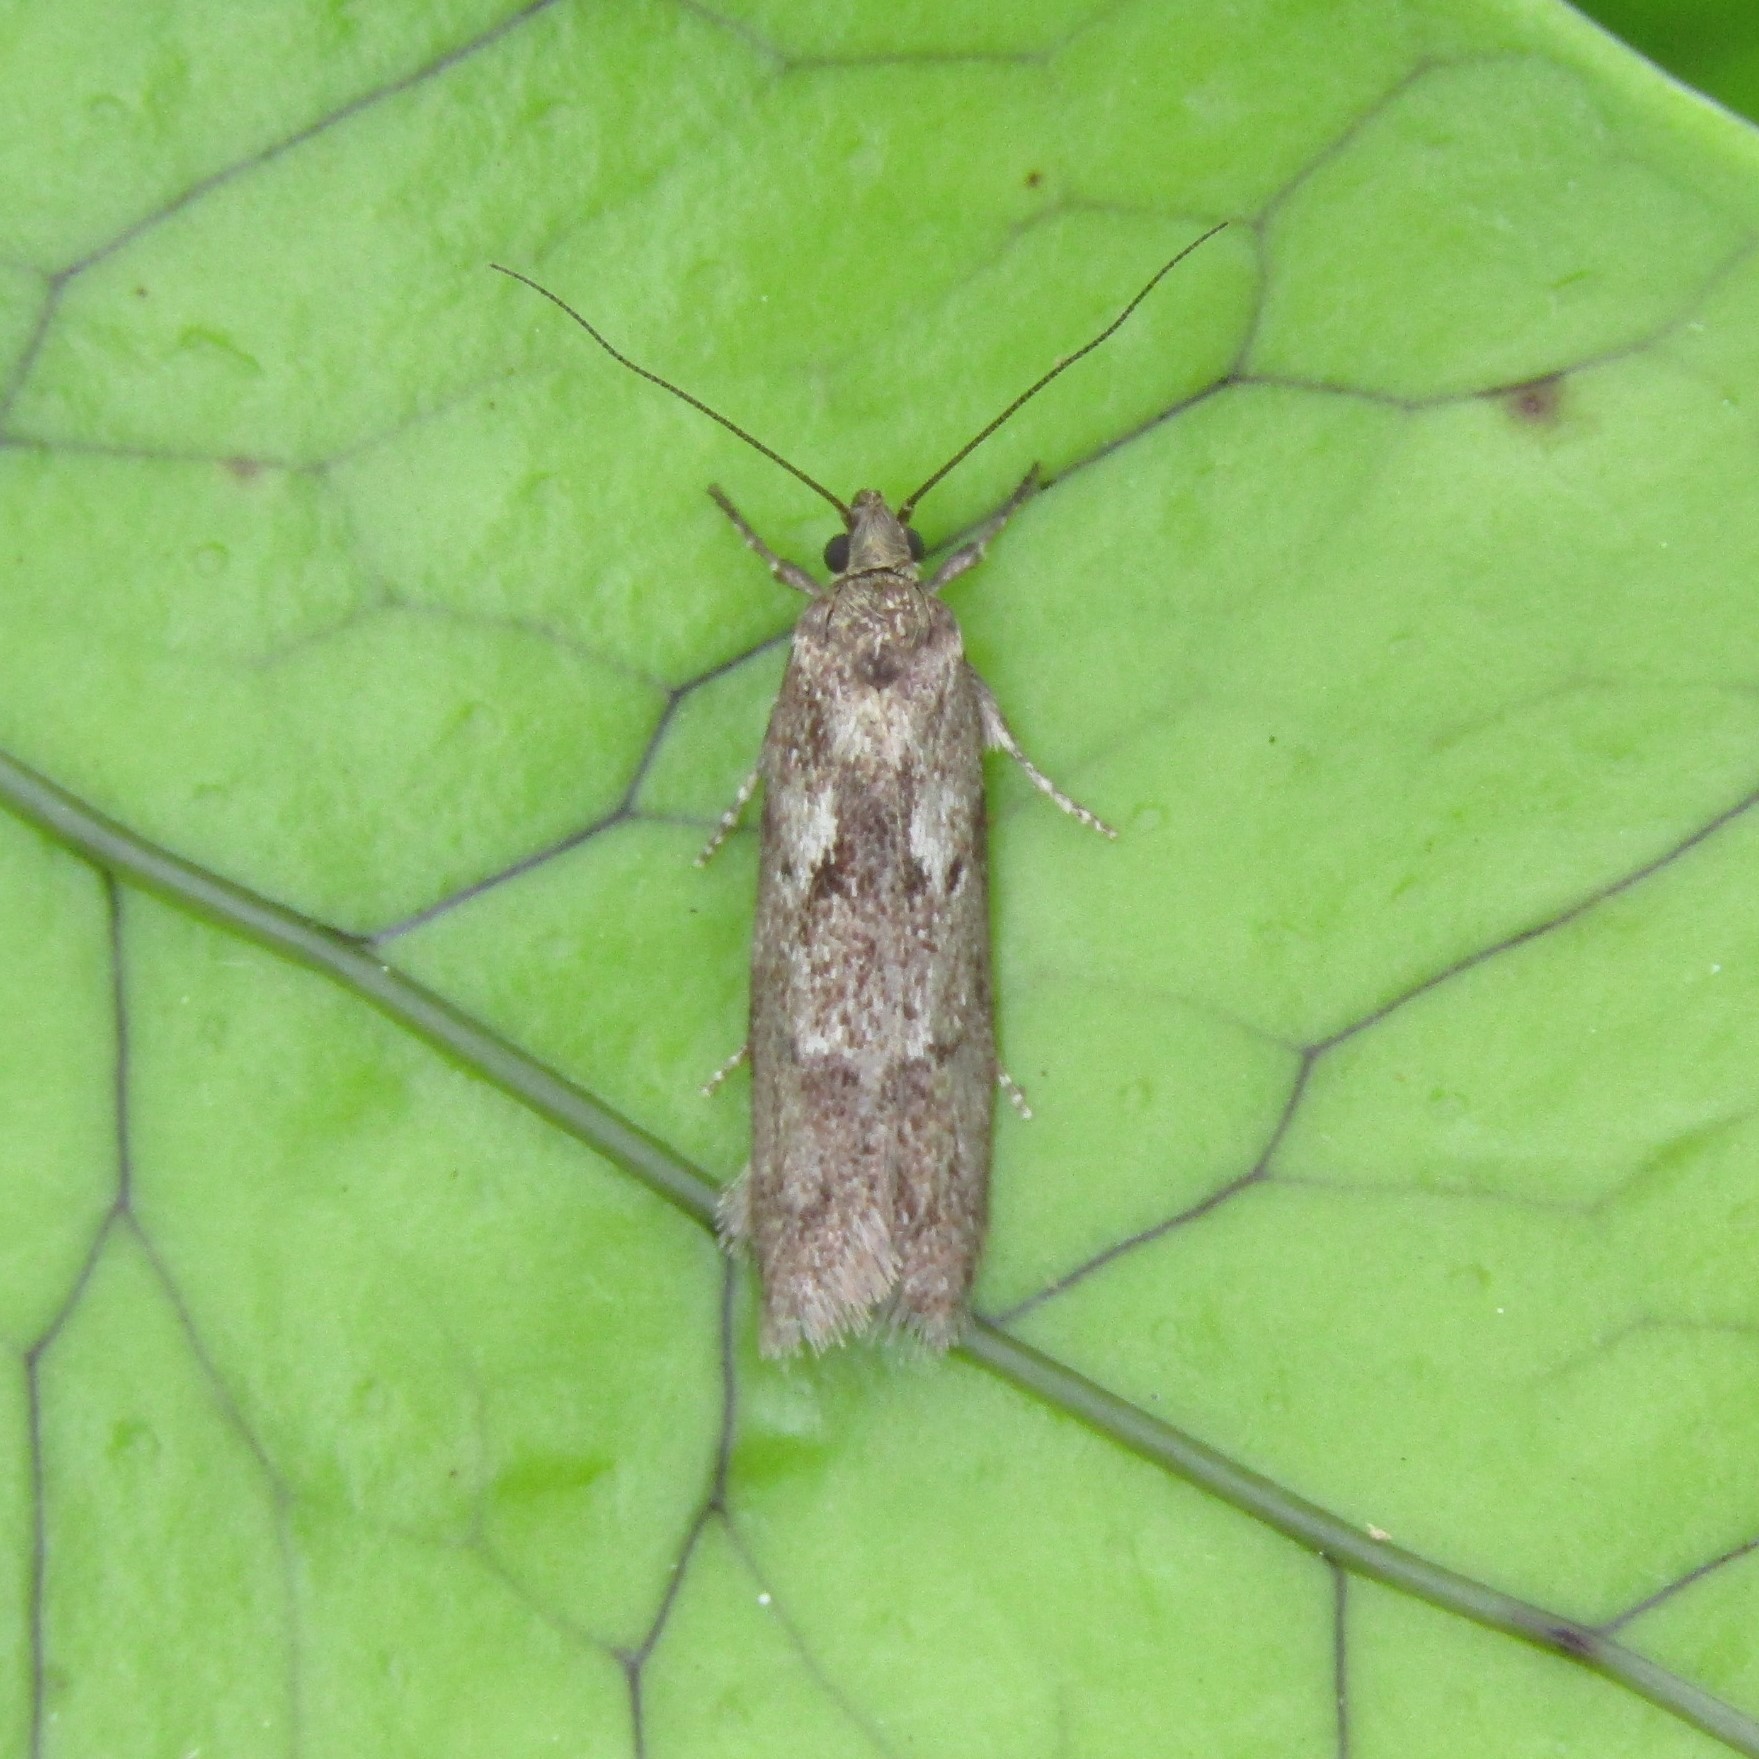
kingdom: Animalia
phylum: Arthropoda
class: Insecta
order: Lepidoptera
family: Oecophoridae
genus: Chersadaula
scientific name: Chersadaula ochrogastra
